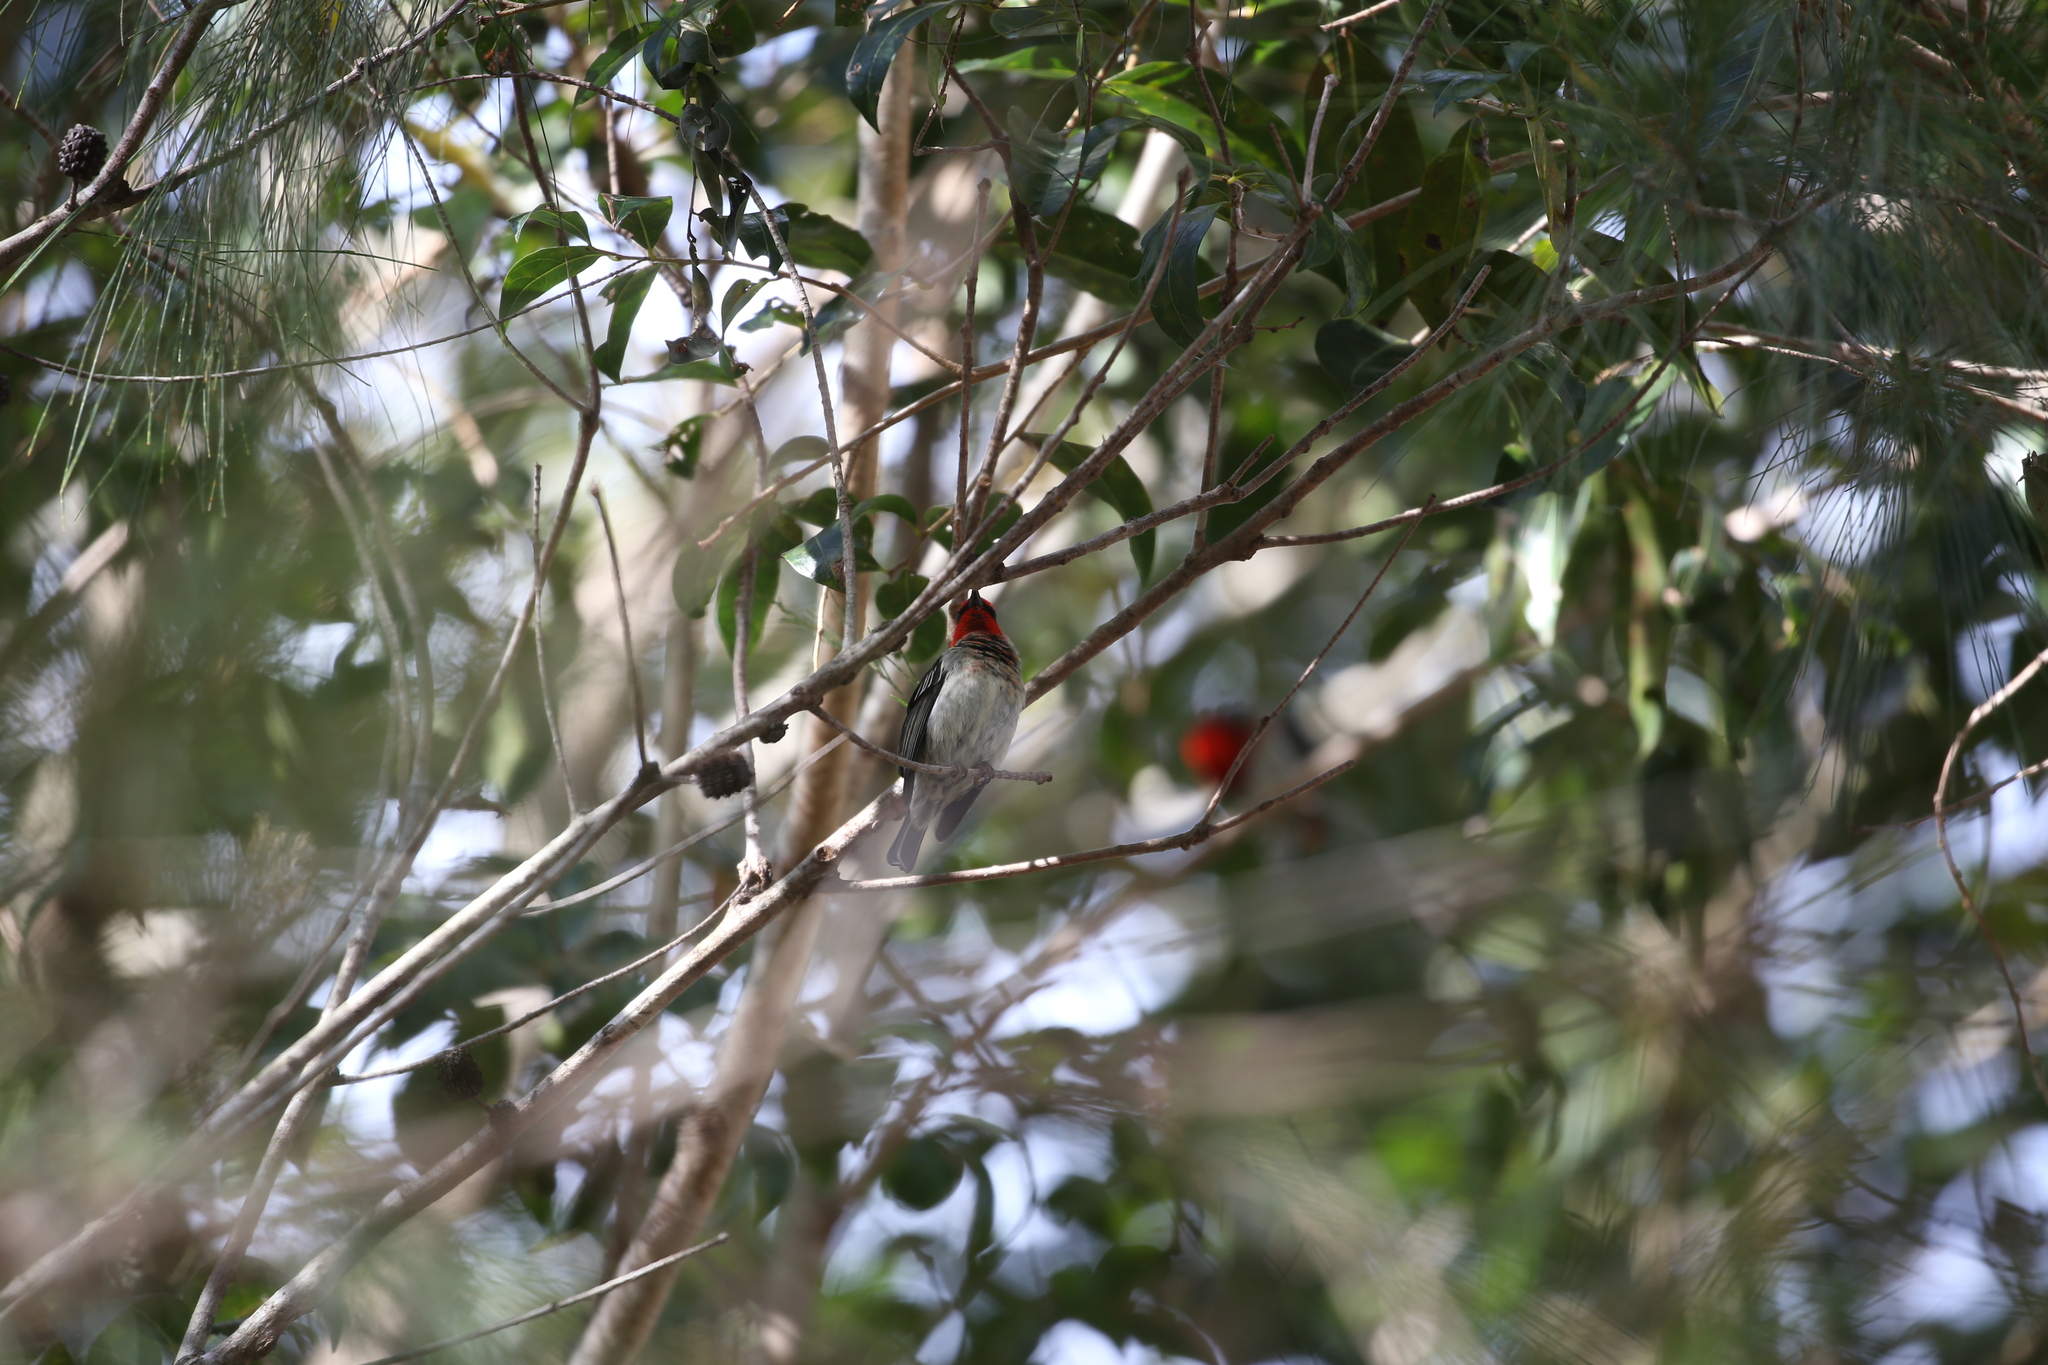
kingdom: Animalia
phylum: Chordata
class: Aves
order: Passeriformes
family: Meliphagidae
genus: Myzomela
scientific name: Myzomela sanguinolenta
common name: Scarlet myzomela
